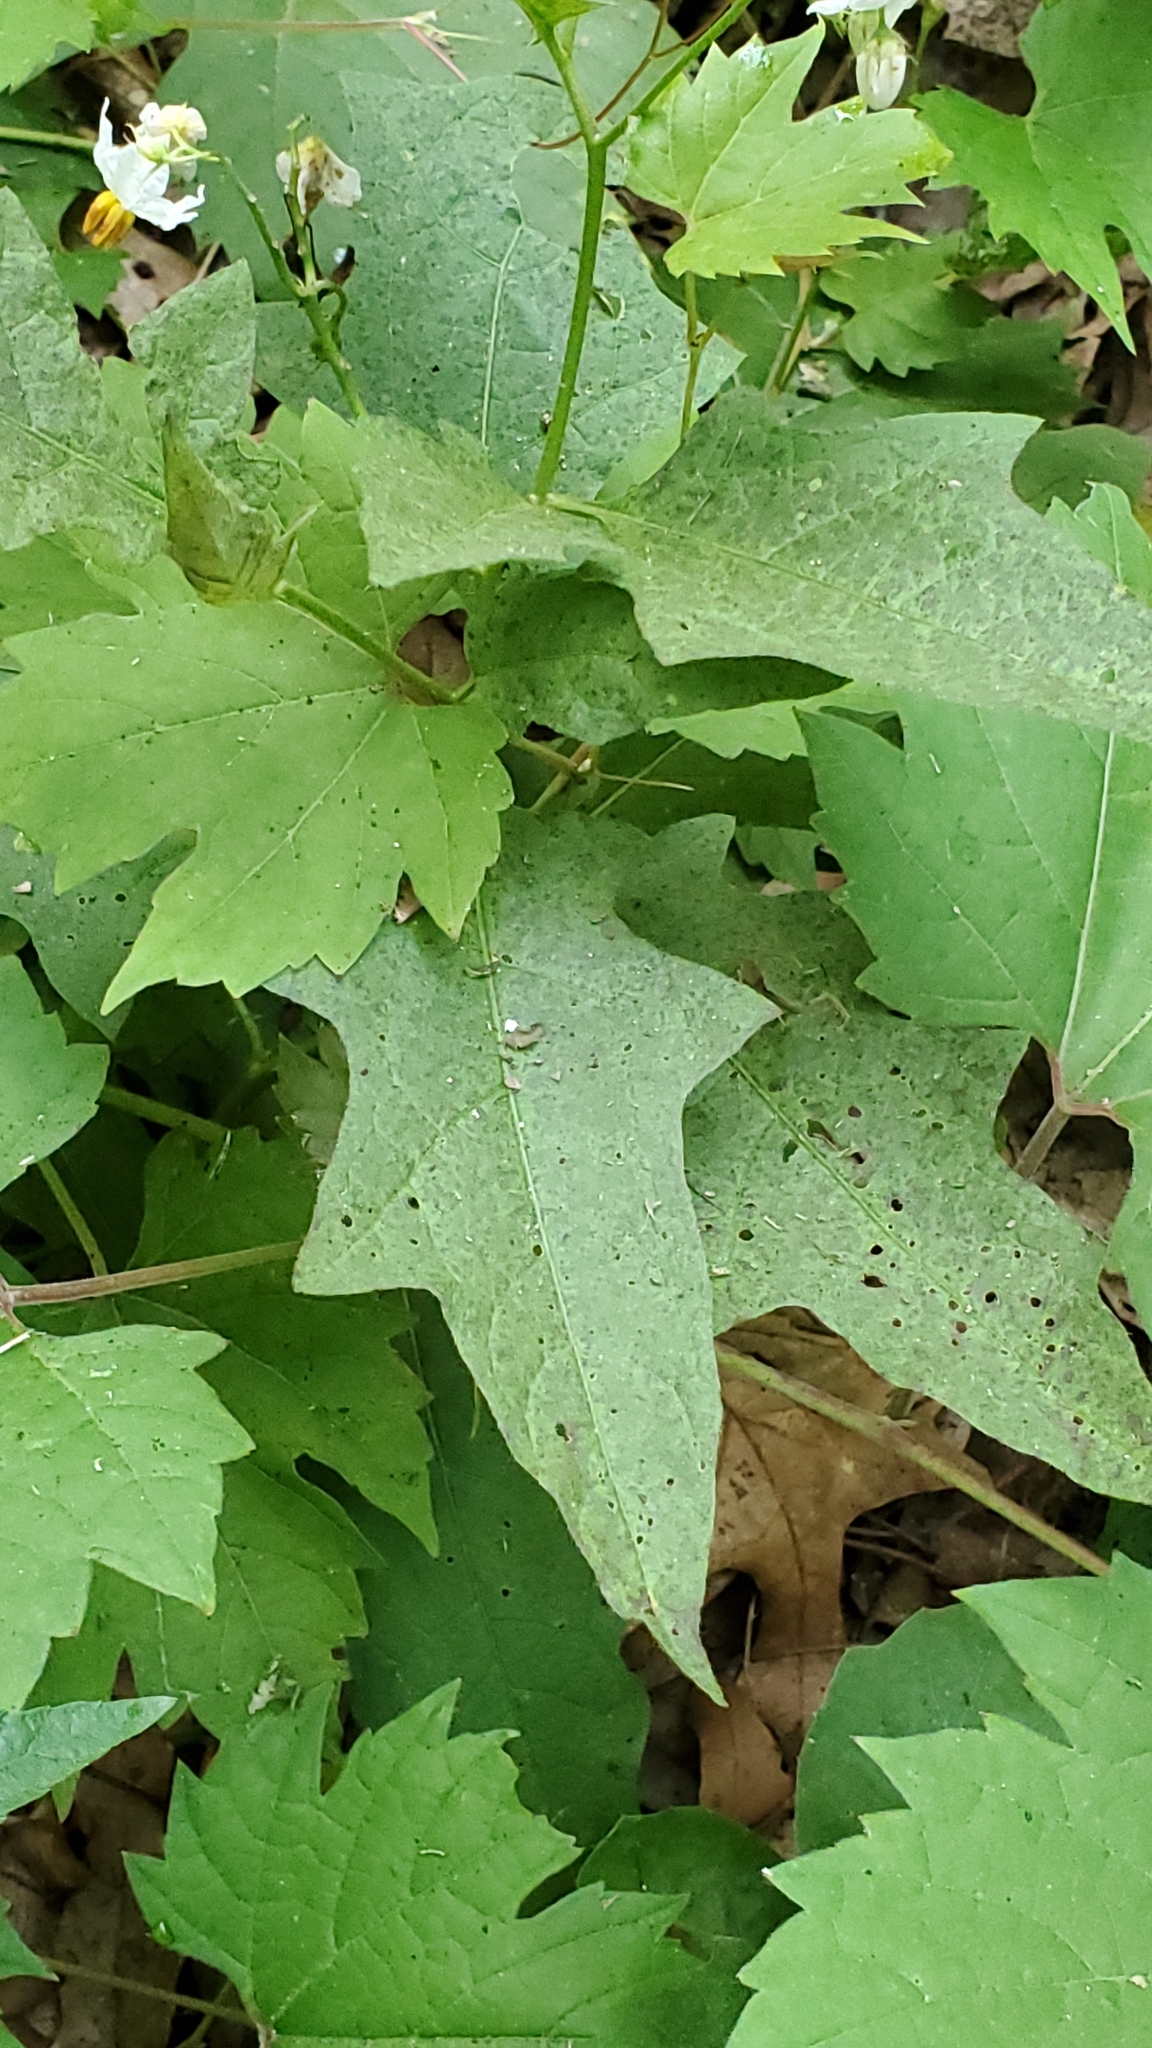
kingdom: Plantae
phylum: Tracheophyta
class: Magnoliopsida
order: Solanales
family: Solanaceae
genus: Solanum
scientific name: Solanum carolinense
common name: Horse-nettle
